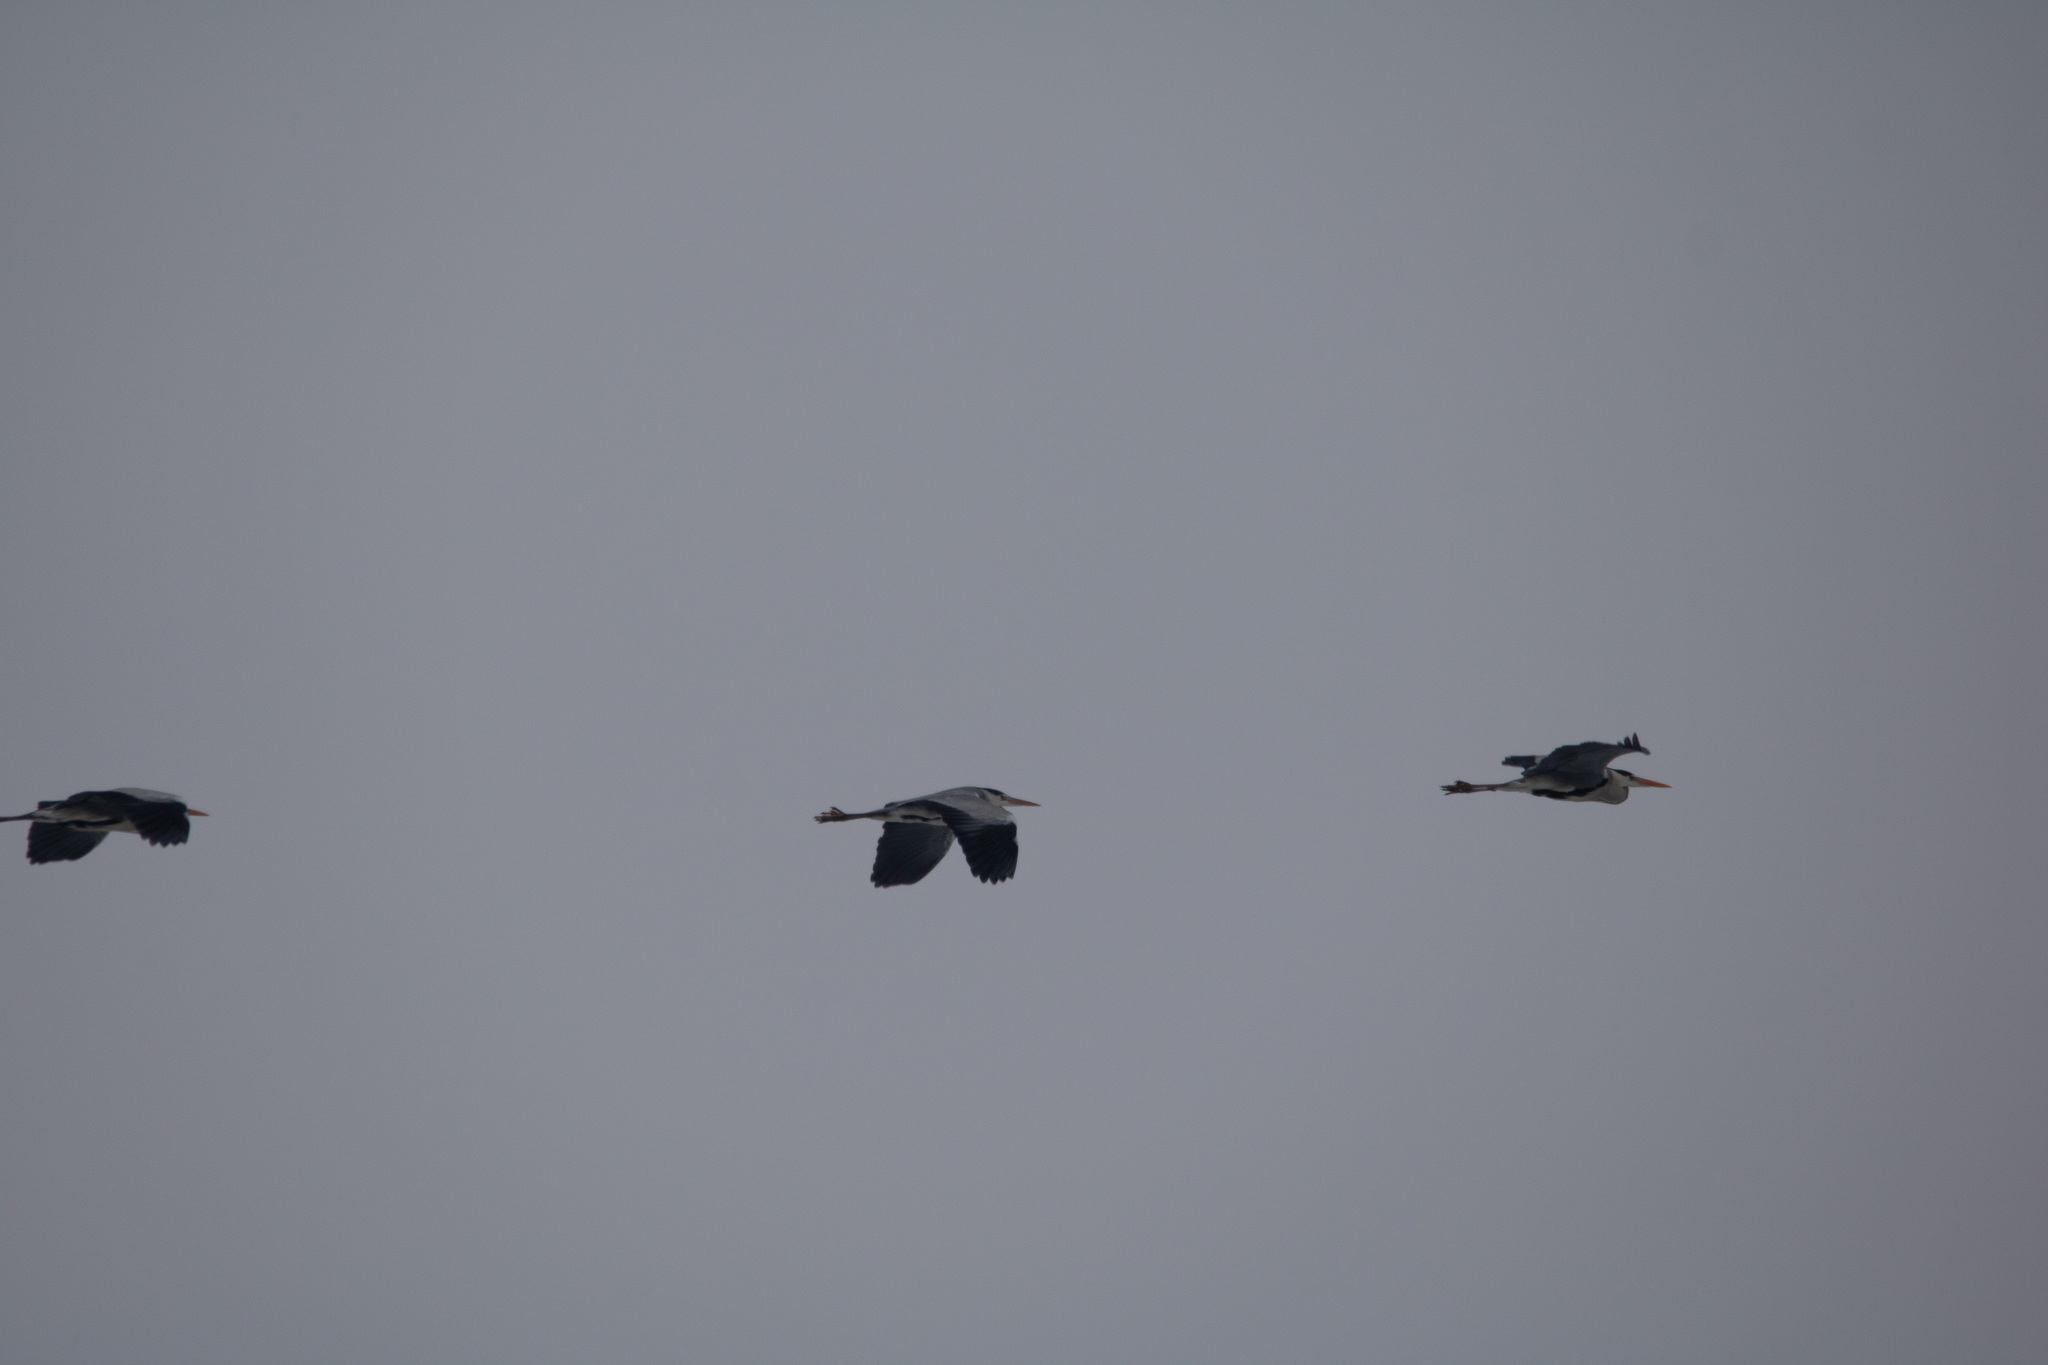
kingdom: Animalia
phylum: Chordata
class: Aves
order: Pelecaniformes
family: Ardeidae
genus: Ardea
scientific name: Ardea cinerea
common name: Grey heron
